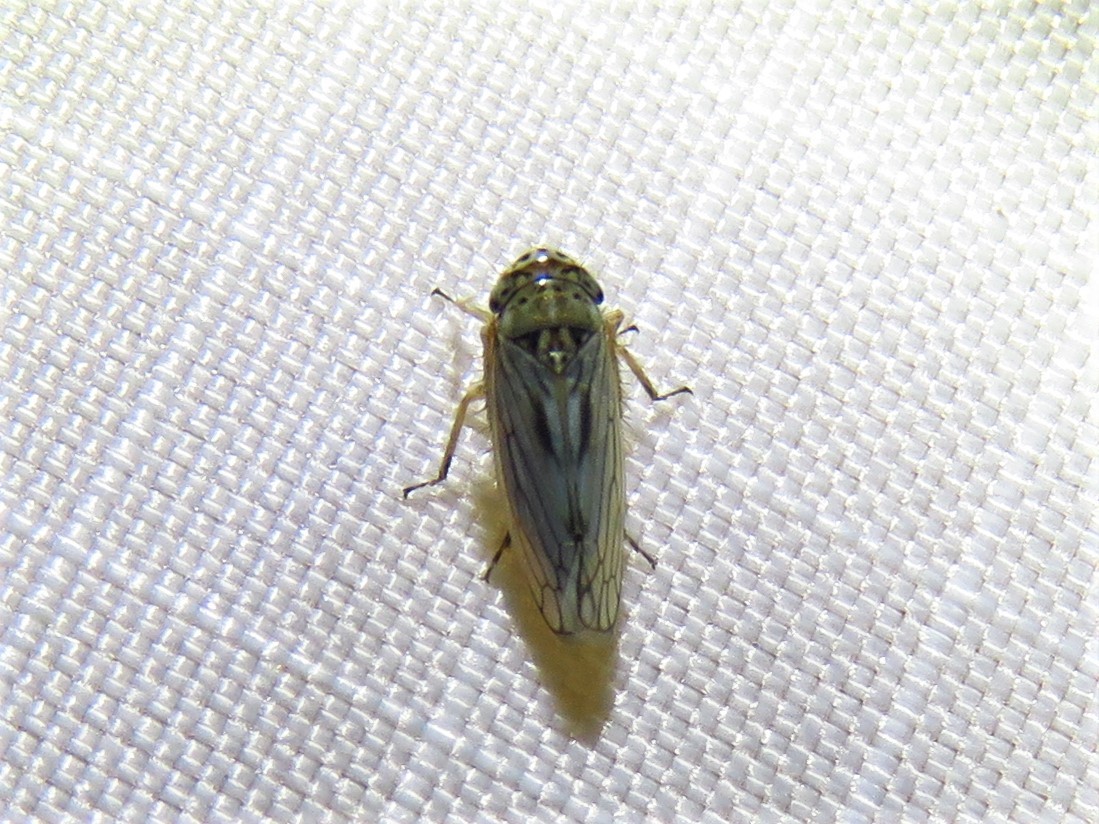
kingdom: Animalia
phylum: Arthropoda
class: Insecta
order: Hemiptera
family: Cicadellidae
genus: Exitianus
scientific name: Exitianus exitiosus
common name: Gray lawn leafhopper
